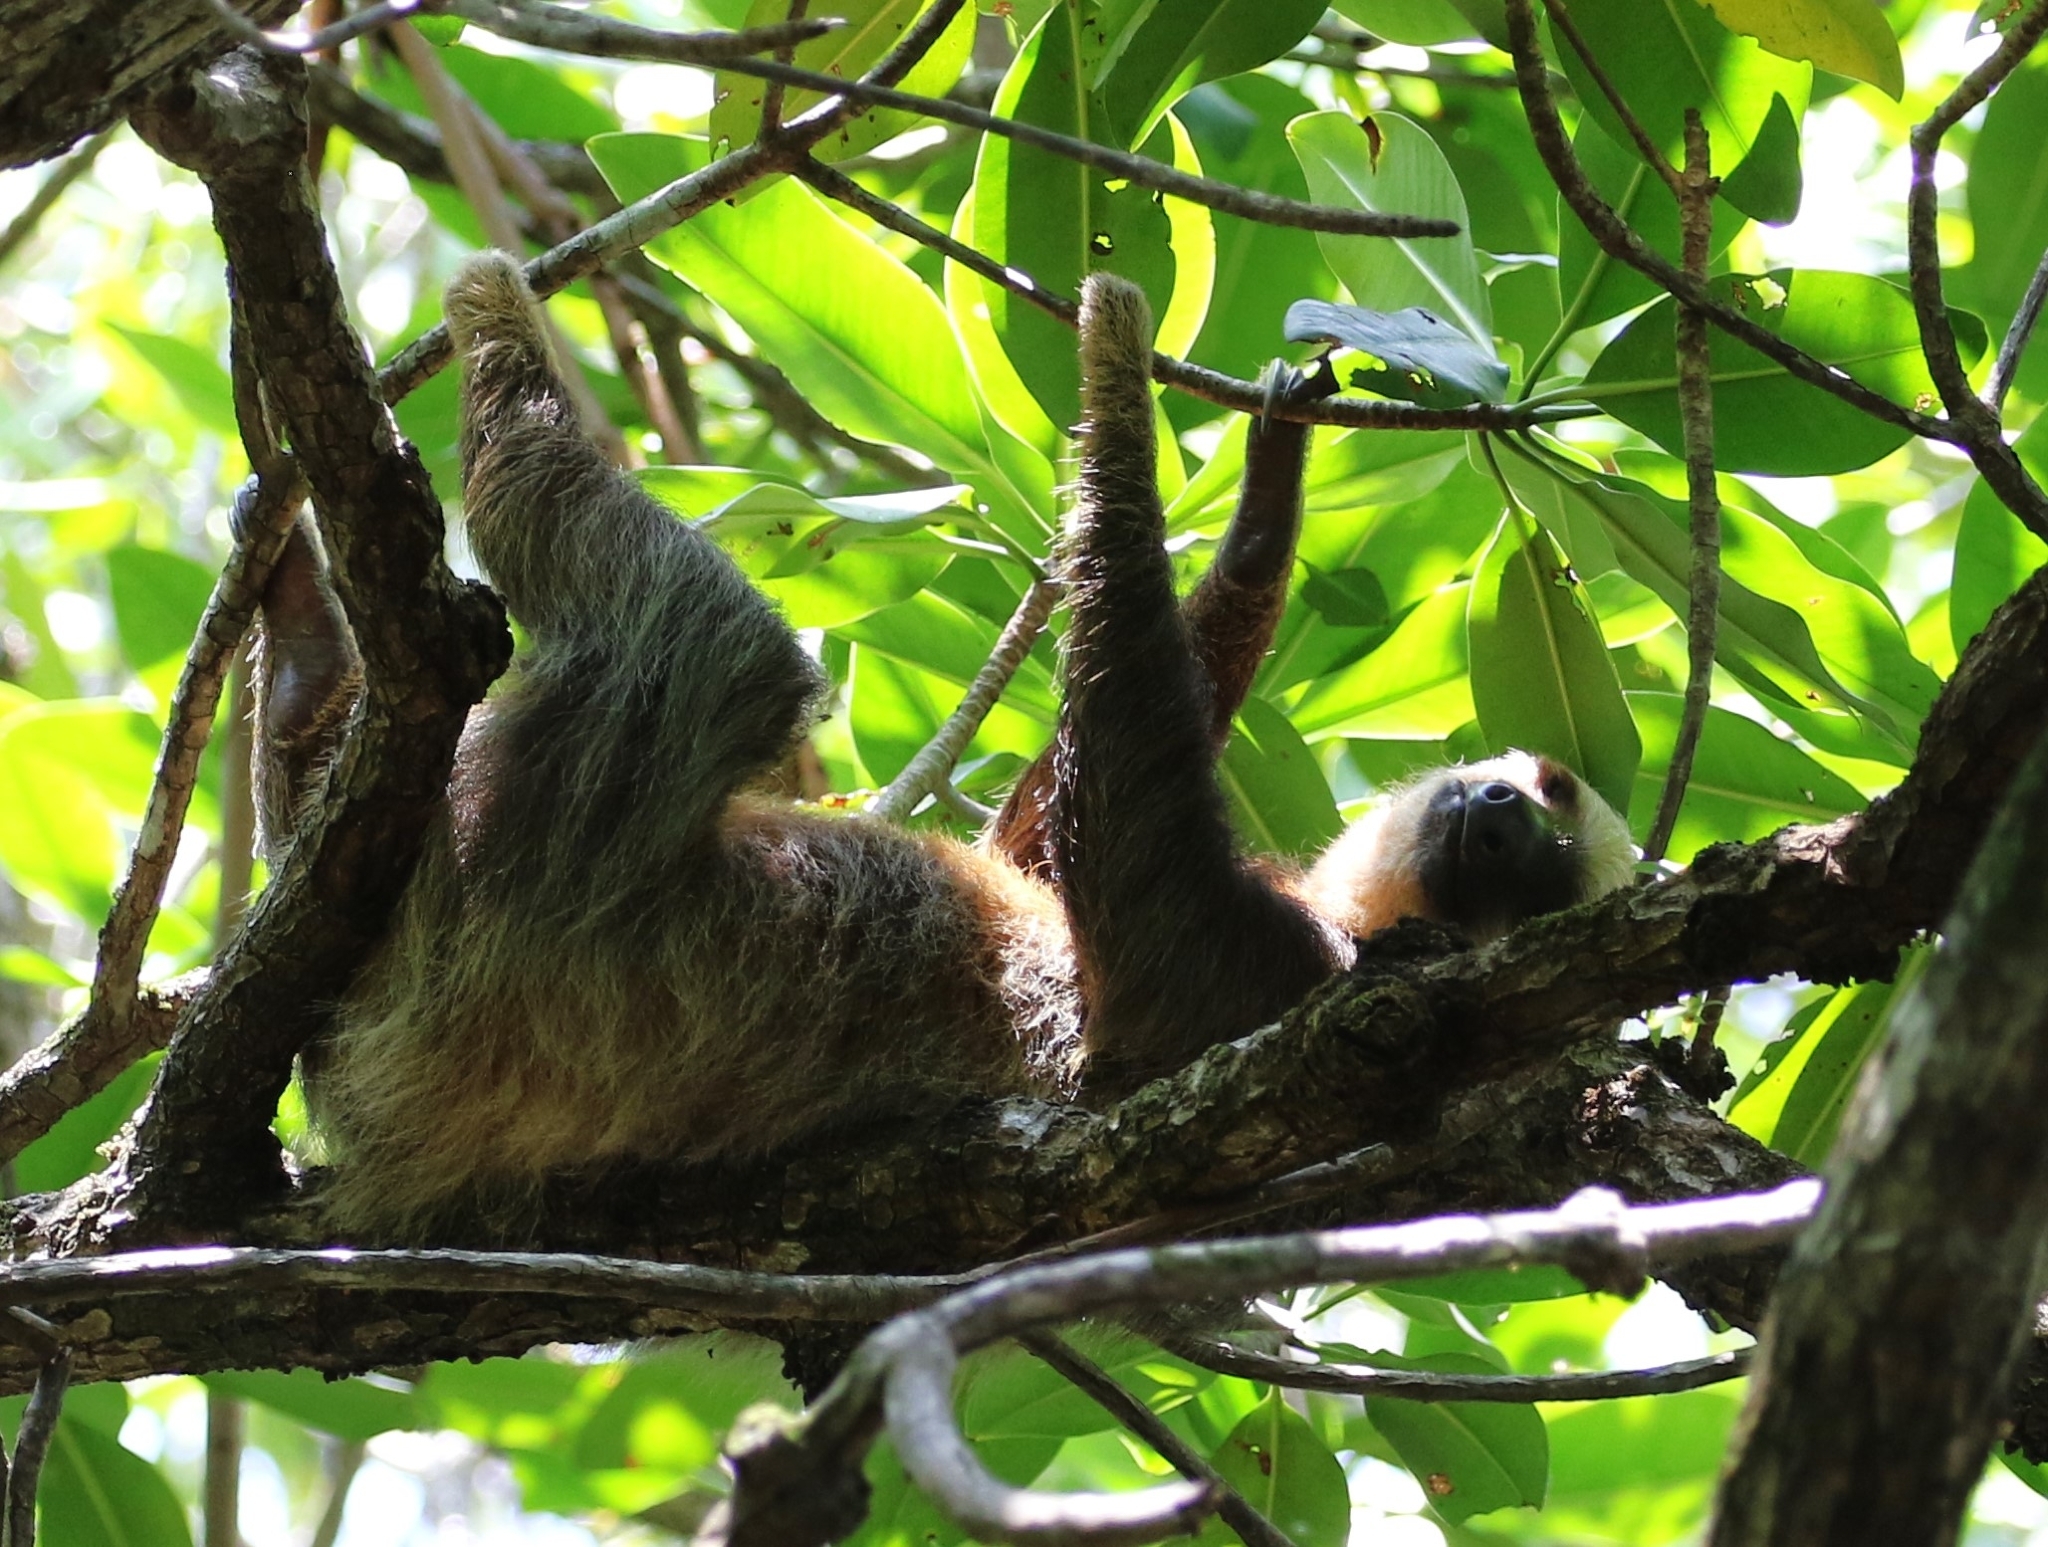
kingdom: Animalia
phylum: Chordata
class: Mammalia
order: Pilosa
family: Megalonychidae
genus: Choloepus
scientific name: Choloepus hoffmanni
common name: Hoffmann's two-toed sloth
